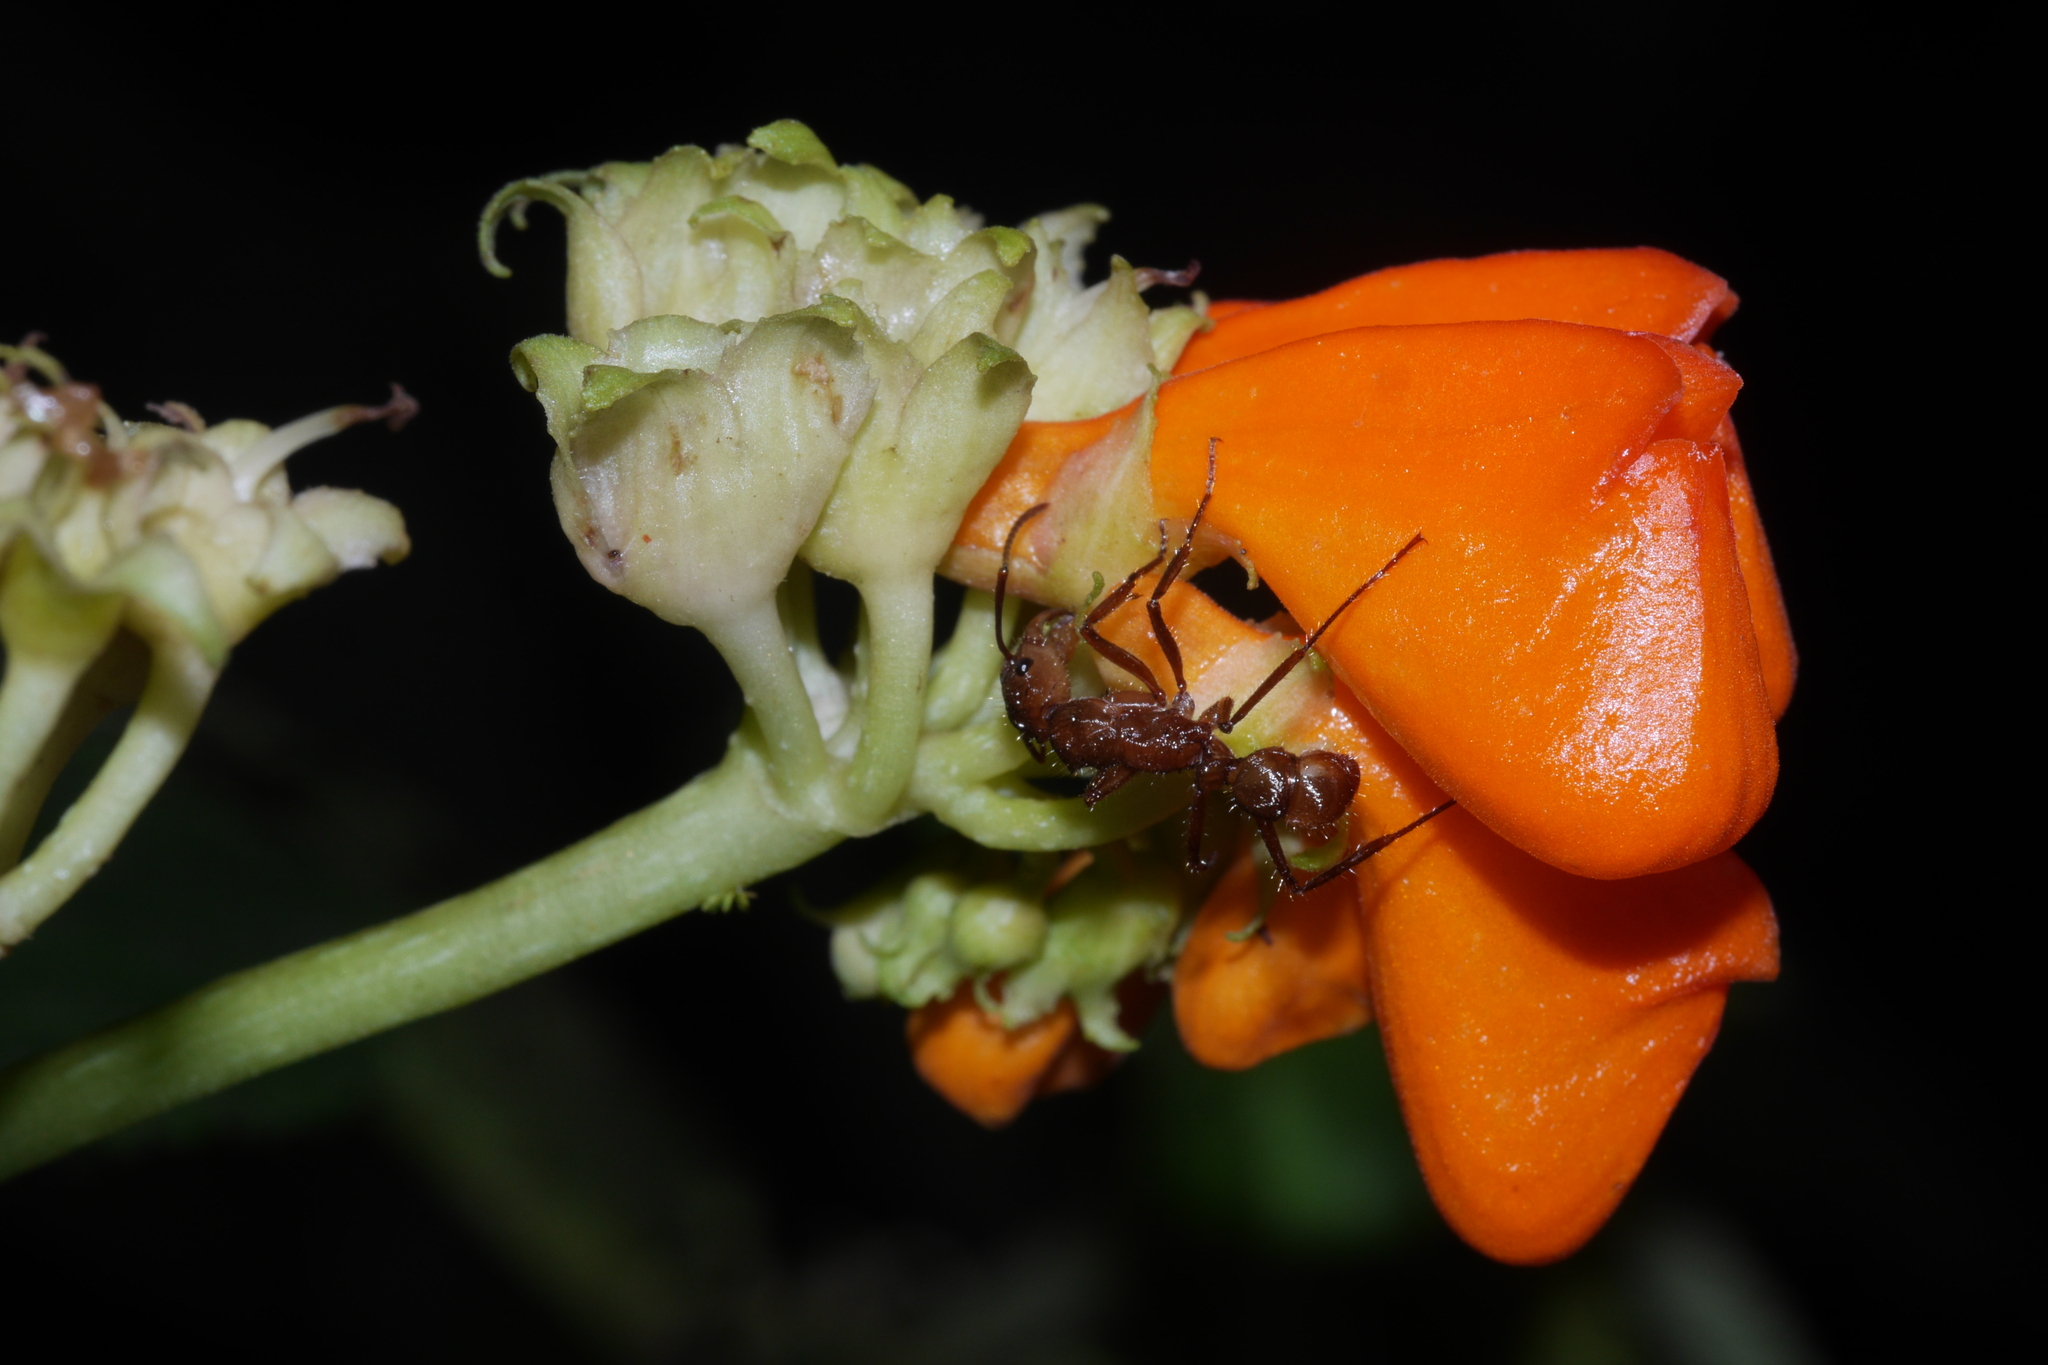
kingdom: Animalia
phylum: Arthropoda
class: Insecta
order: Hymenoptera
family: Formicidae
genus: Ectatomma
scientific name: Ectatomma tuberculatum
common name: Ant
